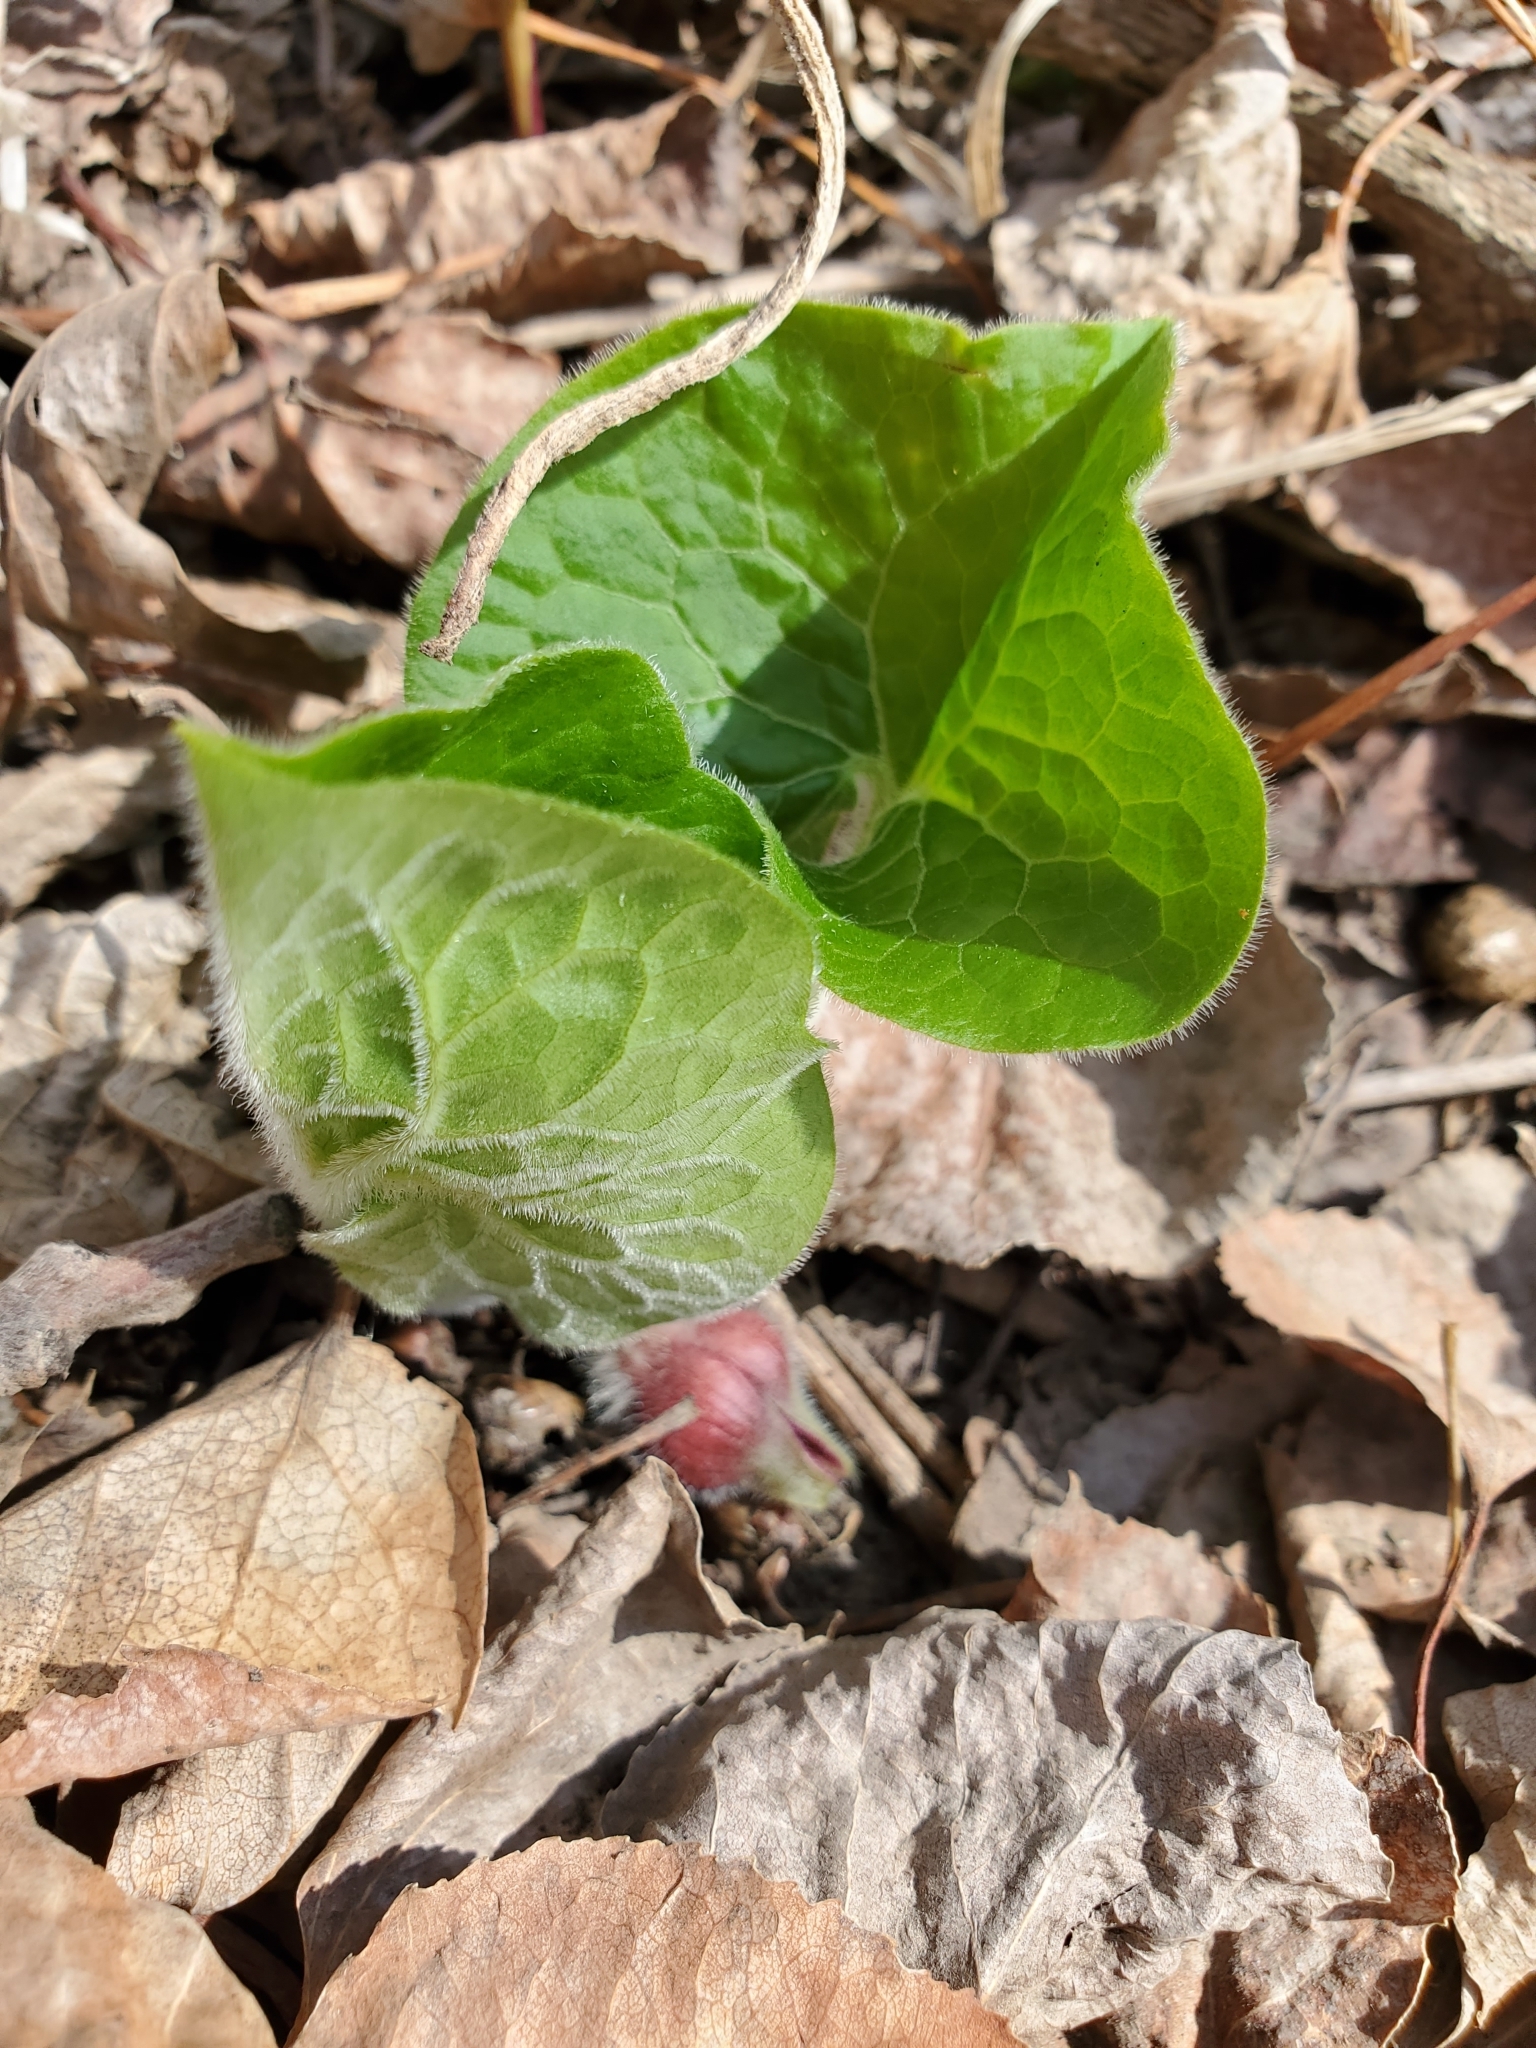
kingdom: Plantae
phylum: Tracheophyta
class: Magnoliopsida
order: Piperales
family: Aristolochiaceae
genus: Asarum
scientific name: Asarum canadense
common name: Wild ginger
